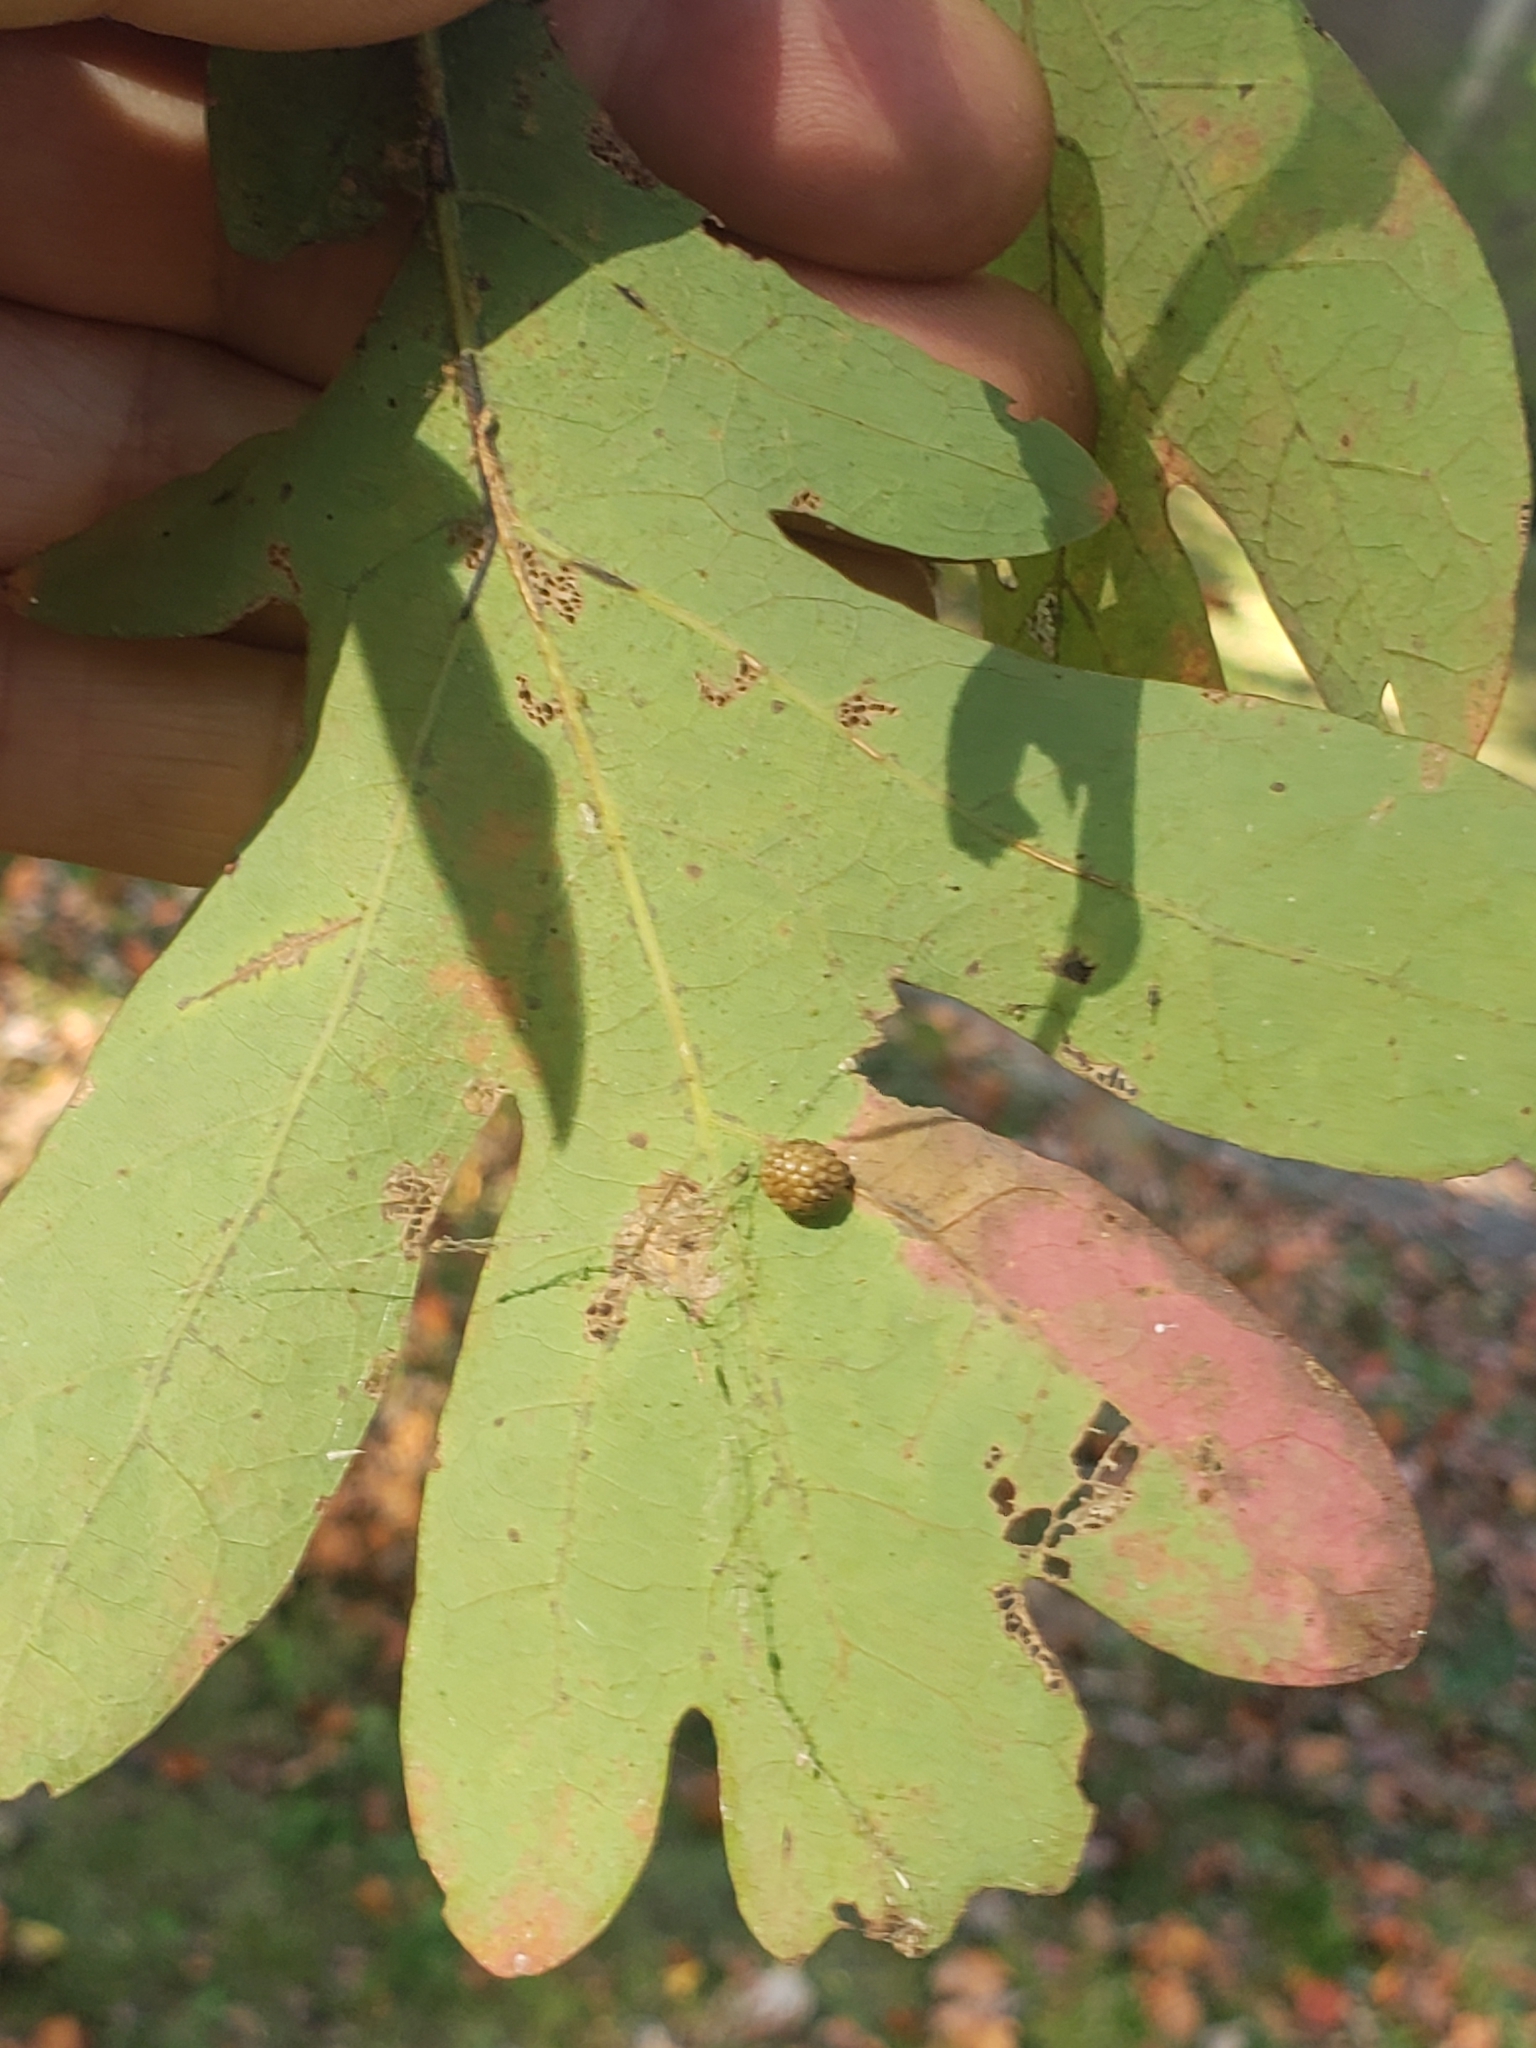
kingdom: Animalia
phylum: Arthropoda
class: Insecta
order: Hymenoptera
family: Cynipidae
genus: Acraspis
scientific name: Acraspis
